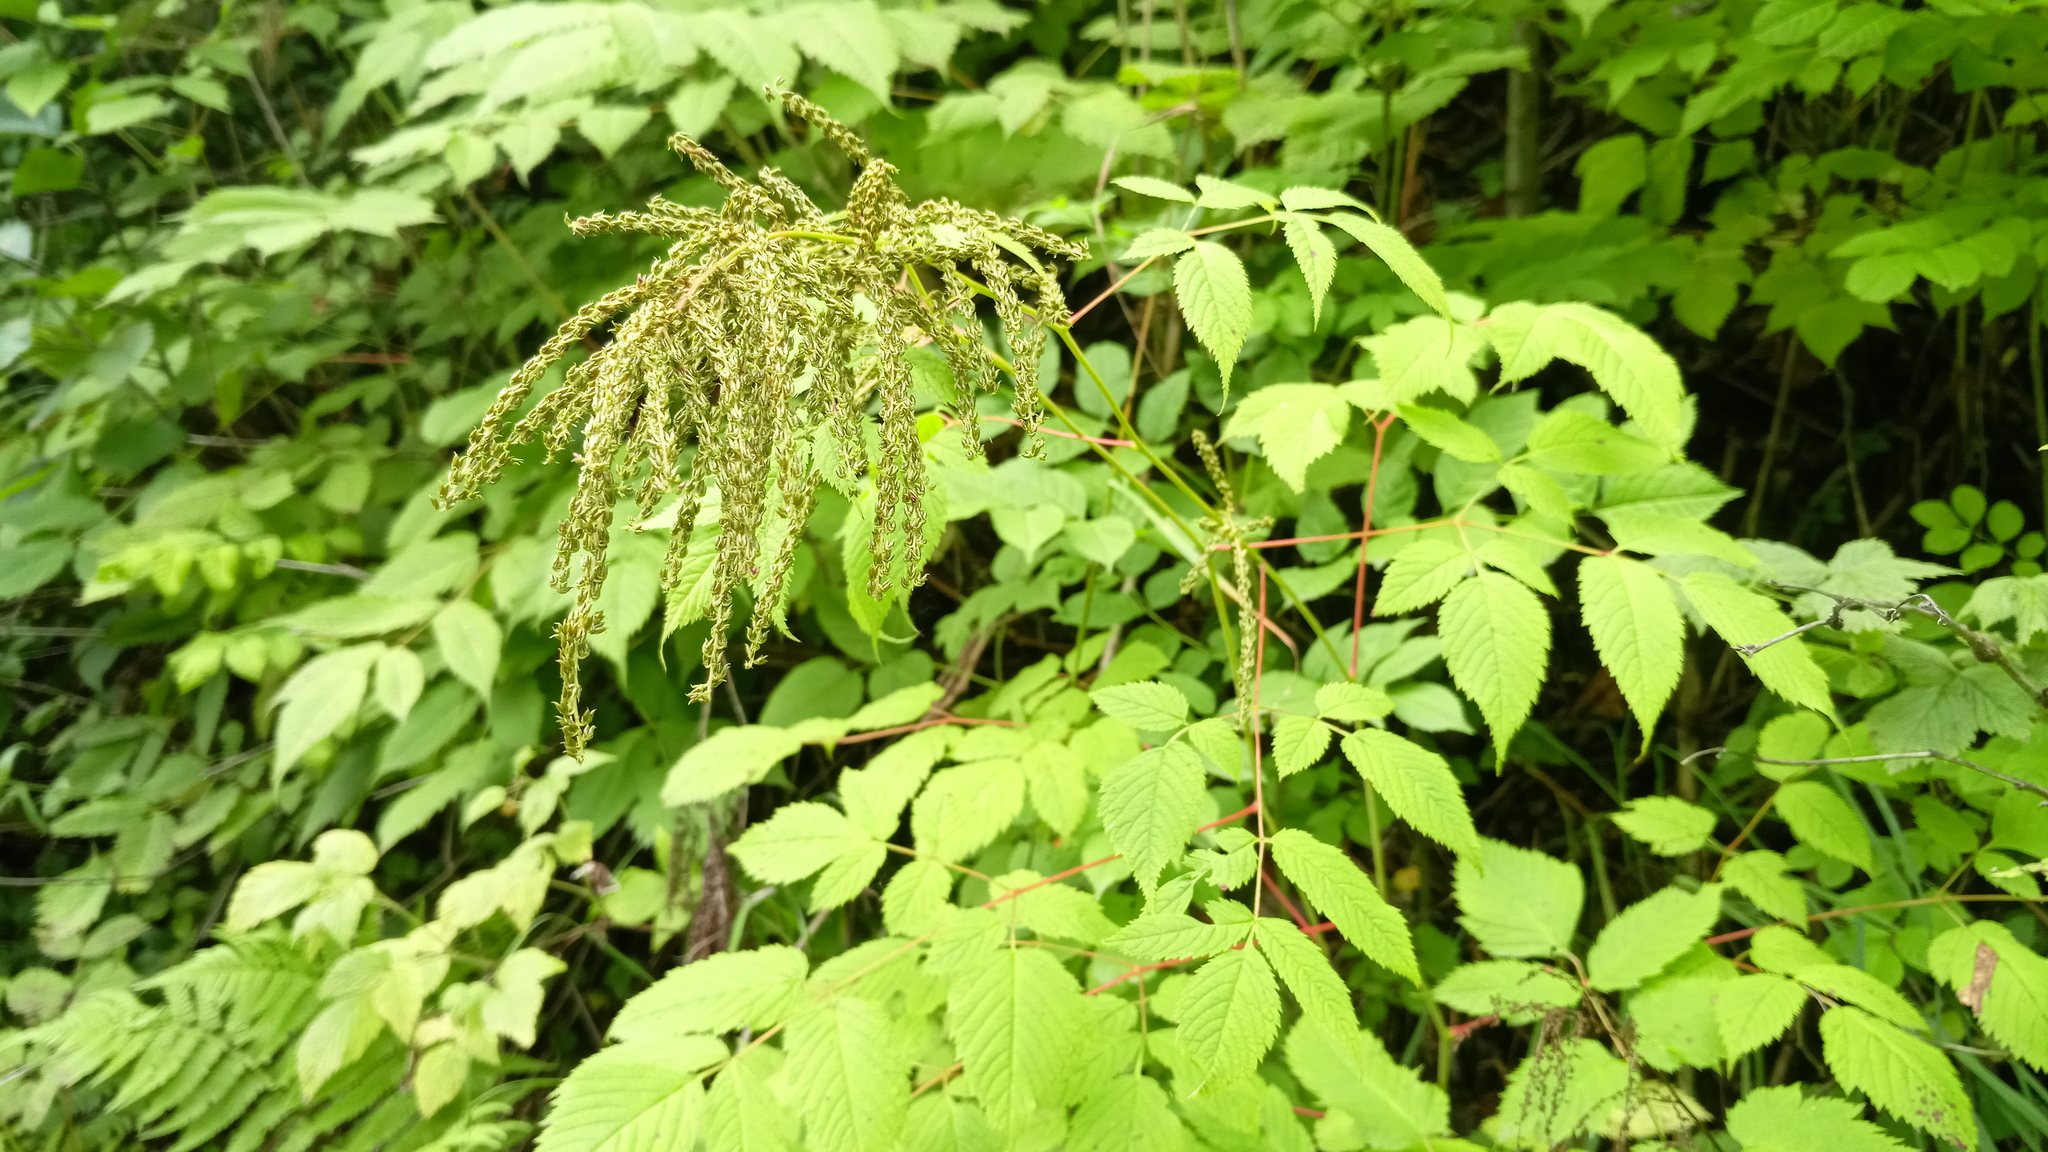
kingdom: Plantae
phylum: Tracheophyta
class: Magnoliopsida
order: Rosales
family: Rosaceae
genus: Aruncus
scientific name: Aruncus dioicus
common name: Buck's-beard
